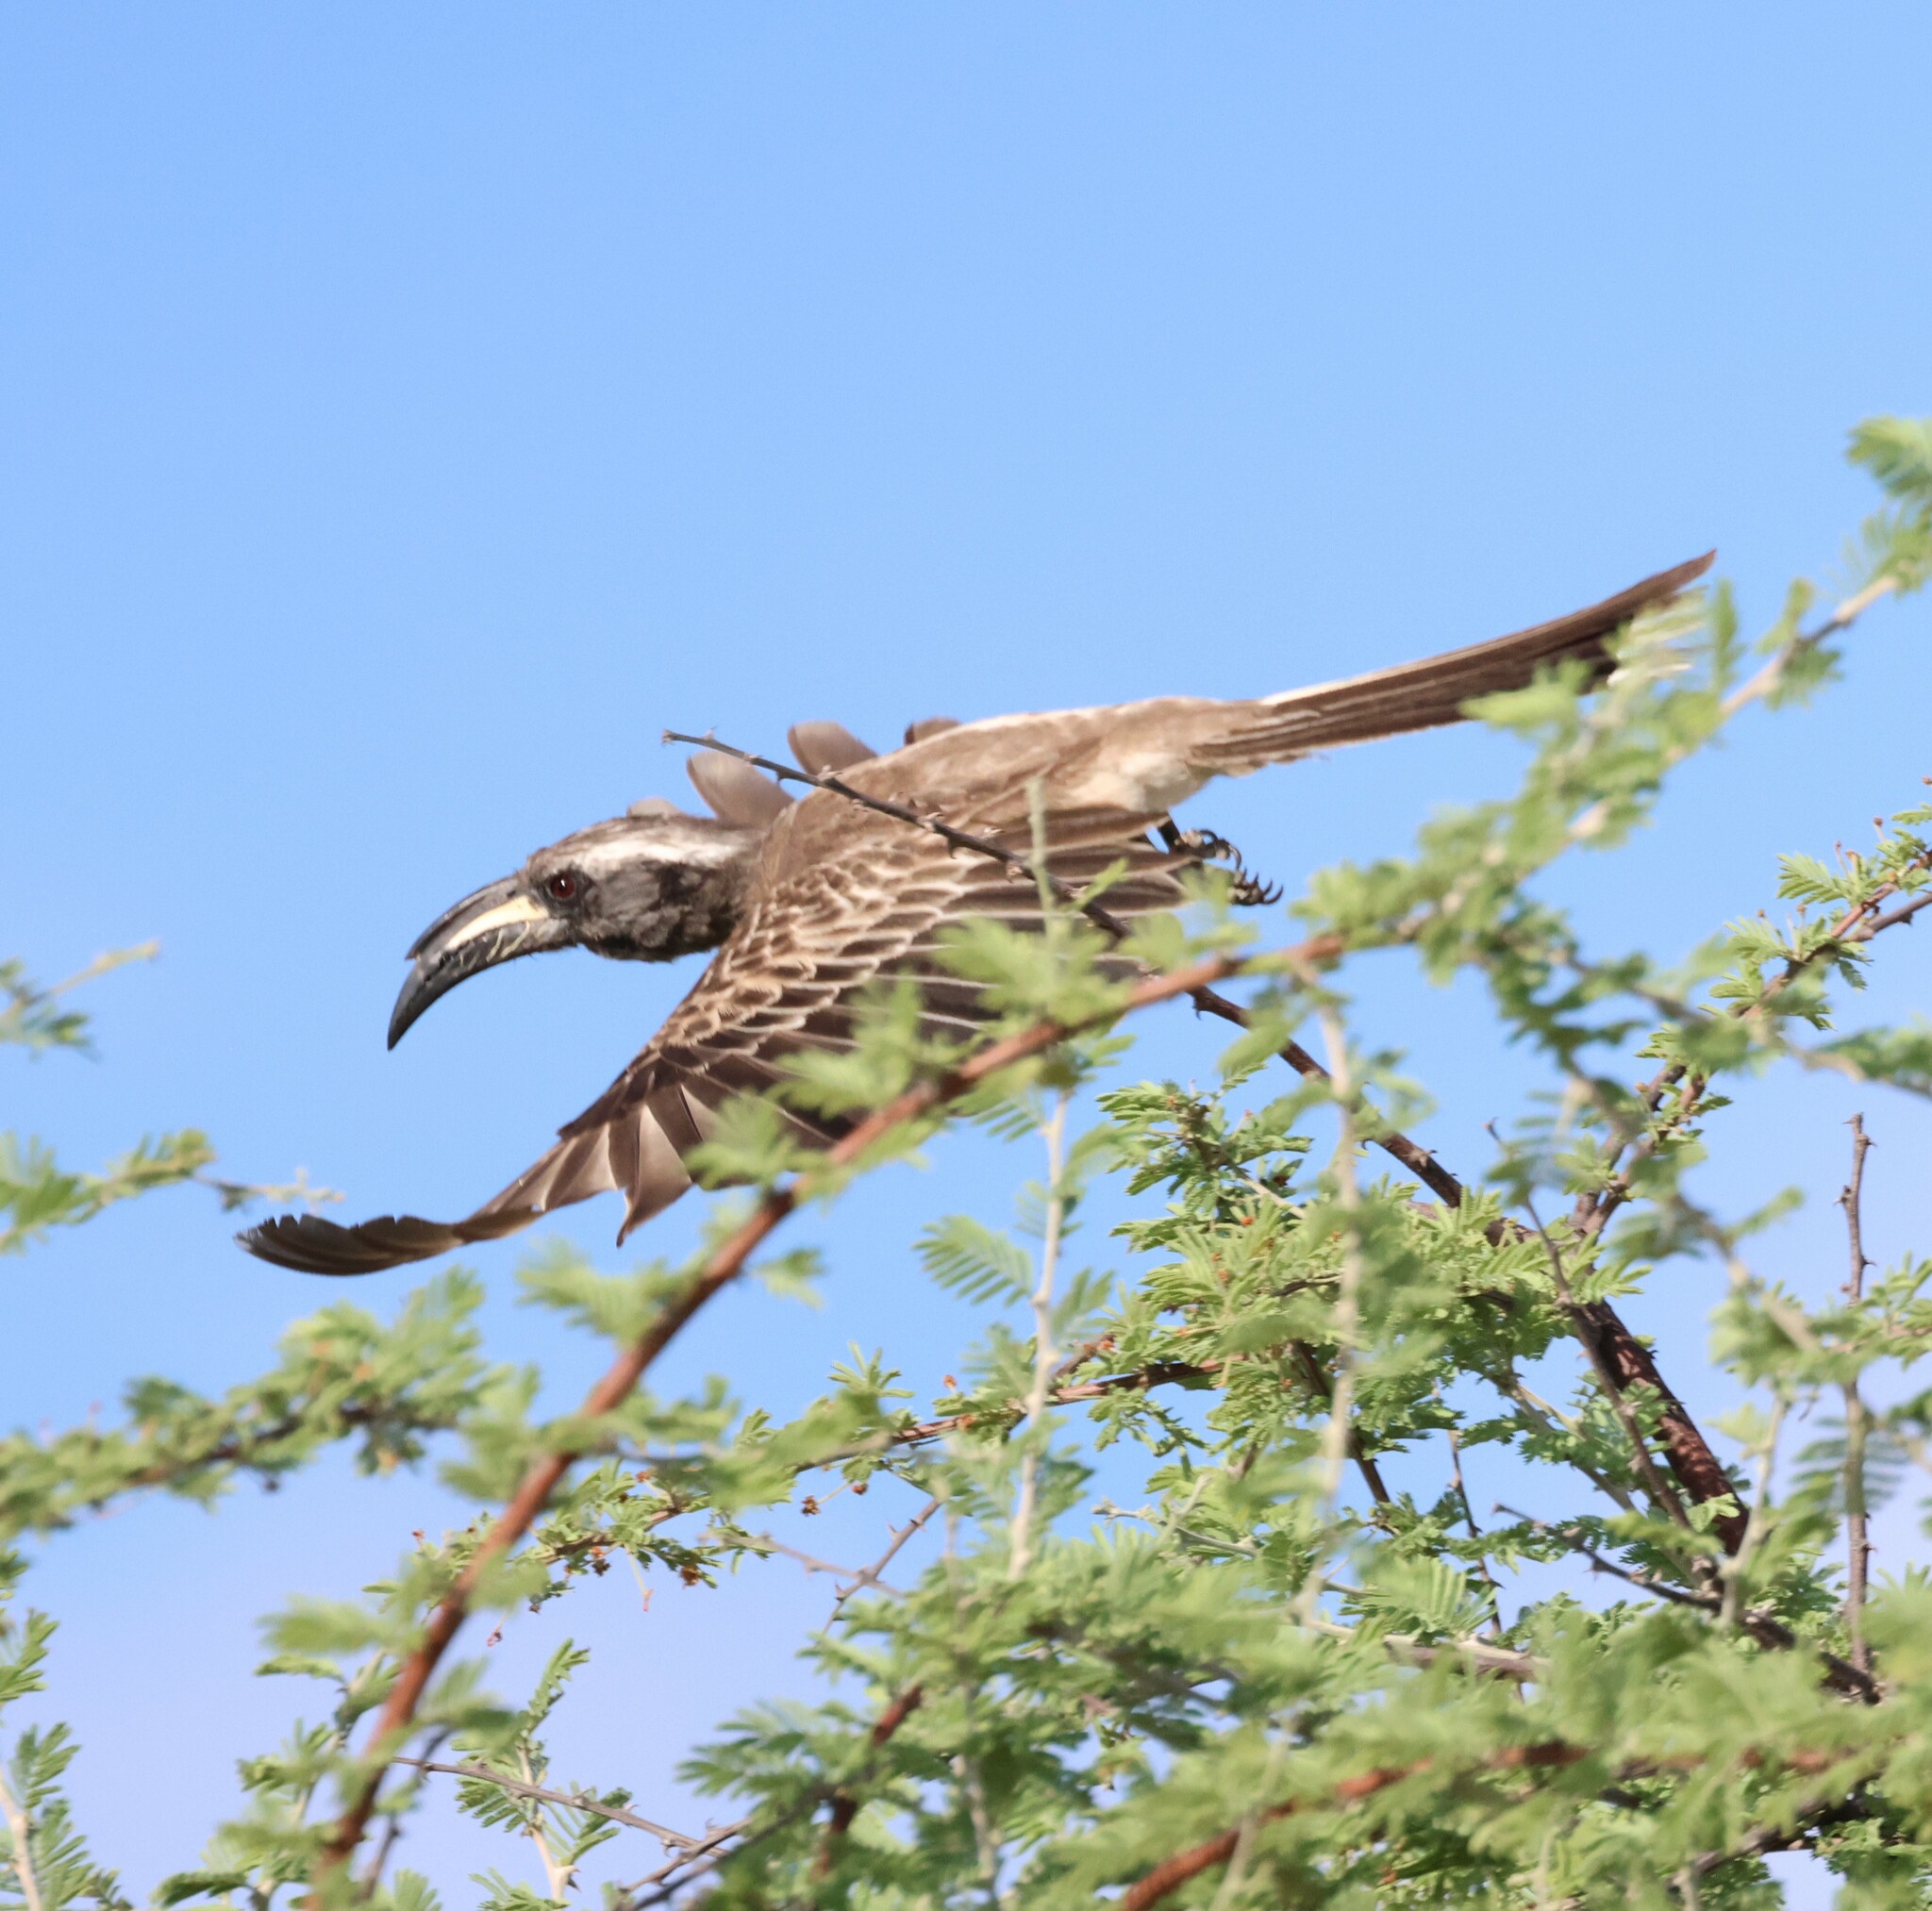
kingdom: Animalia
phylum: Chordata
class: Aves
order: Bucerotiformes
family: Bucerotidae
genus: Lophoceros
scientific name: Lophoceros nasutus
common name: African grey hornbill
